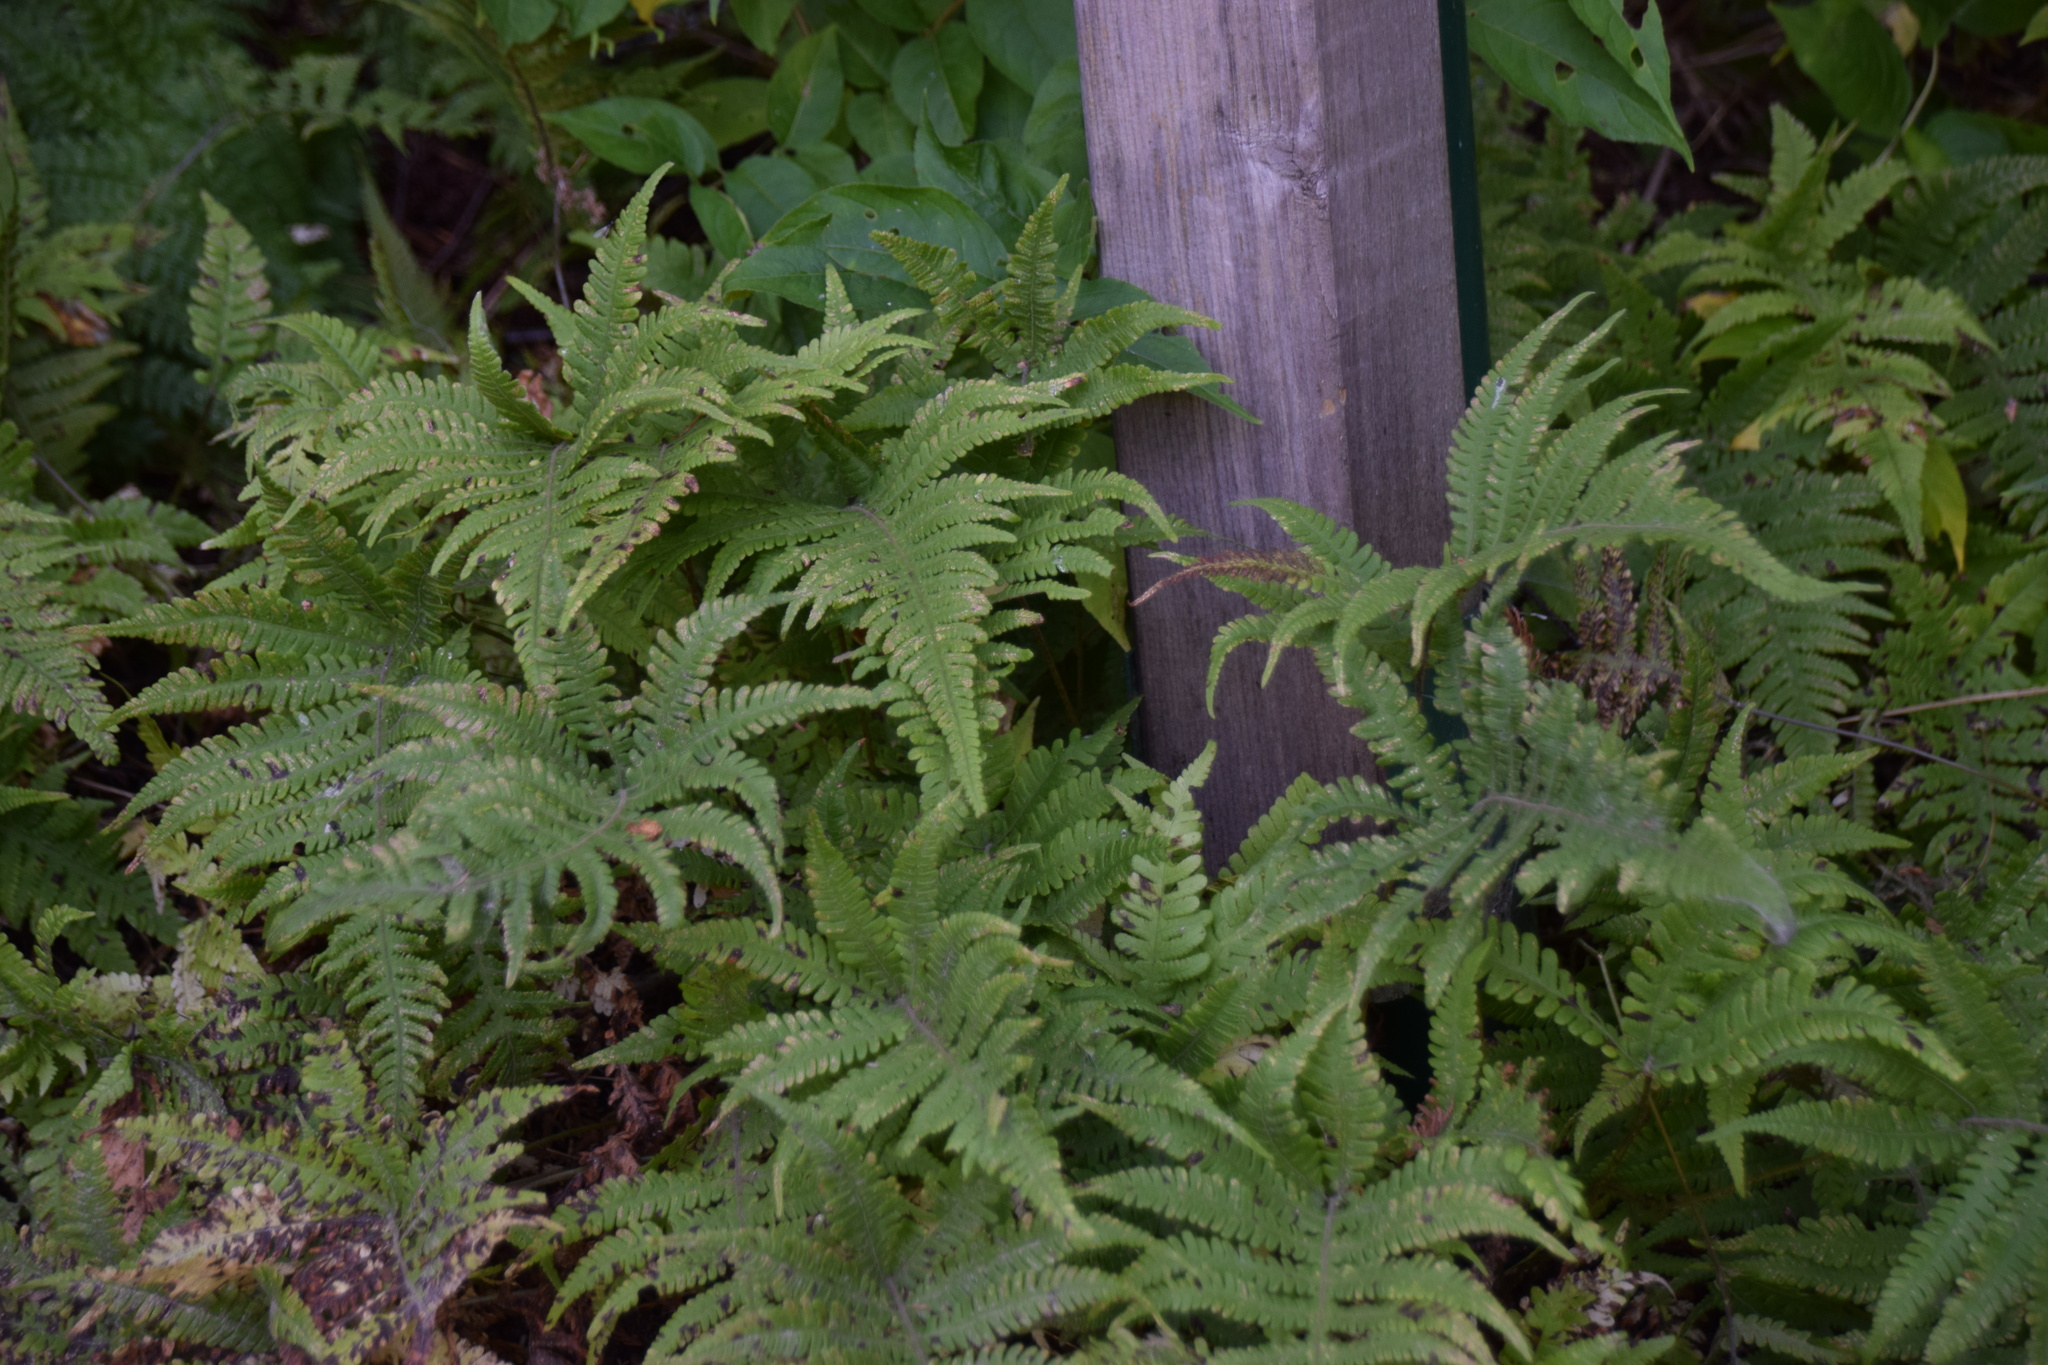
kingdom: Plantae
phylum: Tracheophyta
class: Polypodiopsida
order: Polypodiales
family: Thelypteridaceae
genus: Phegopteris
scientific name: Phegopteris connectilis
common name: Beech fern
